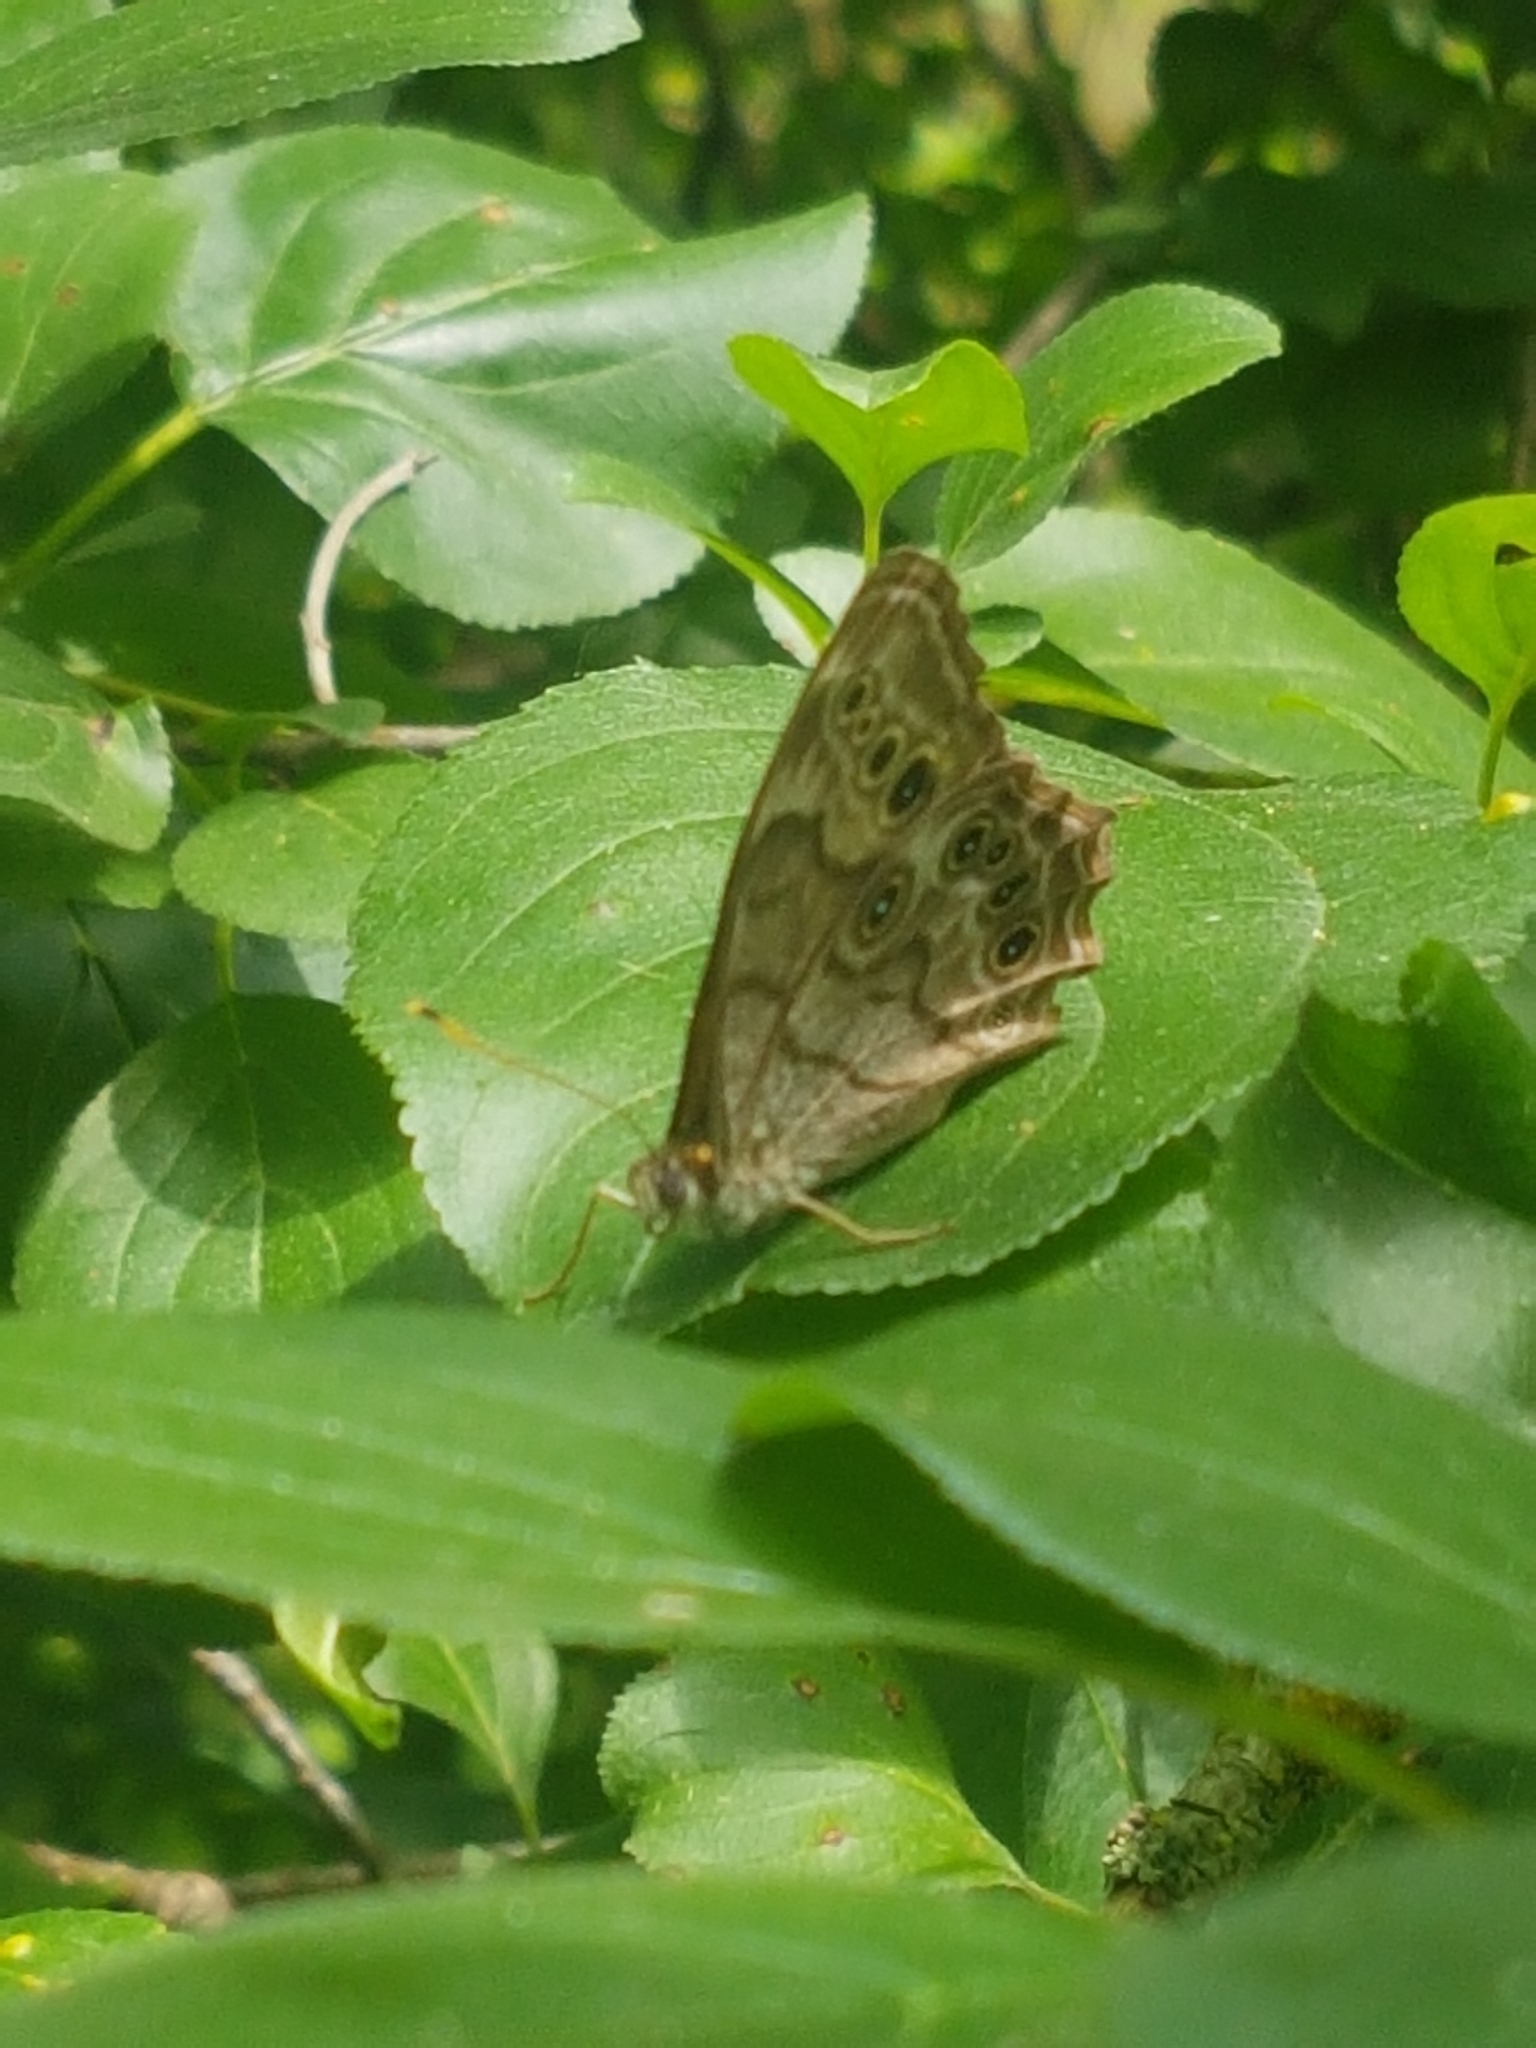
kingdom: Animalia
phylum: Arthropoda
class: Insecta
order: Lepidoptera
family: Nymphalidae
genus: Lethe
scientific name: Lethe anthedon
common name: Northern pearly-eye
